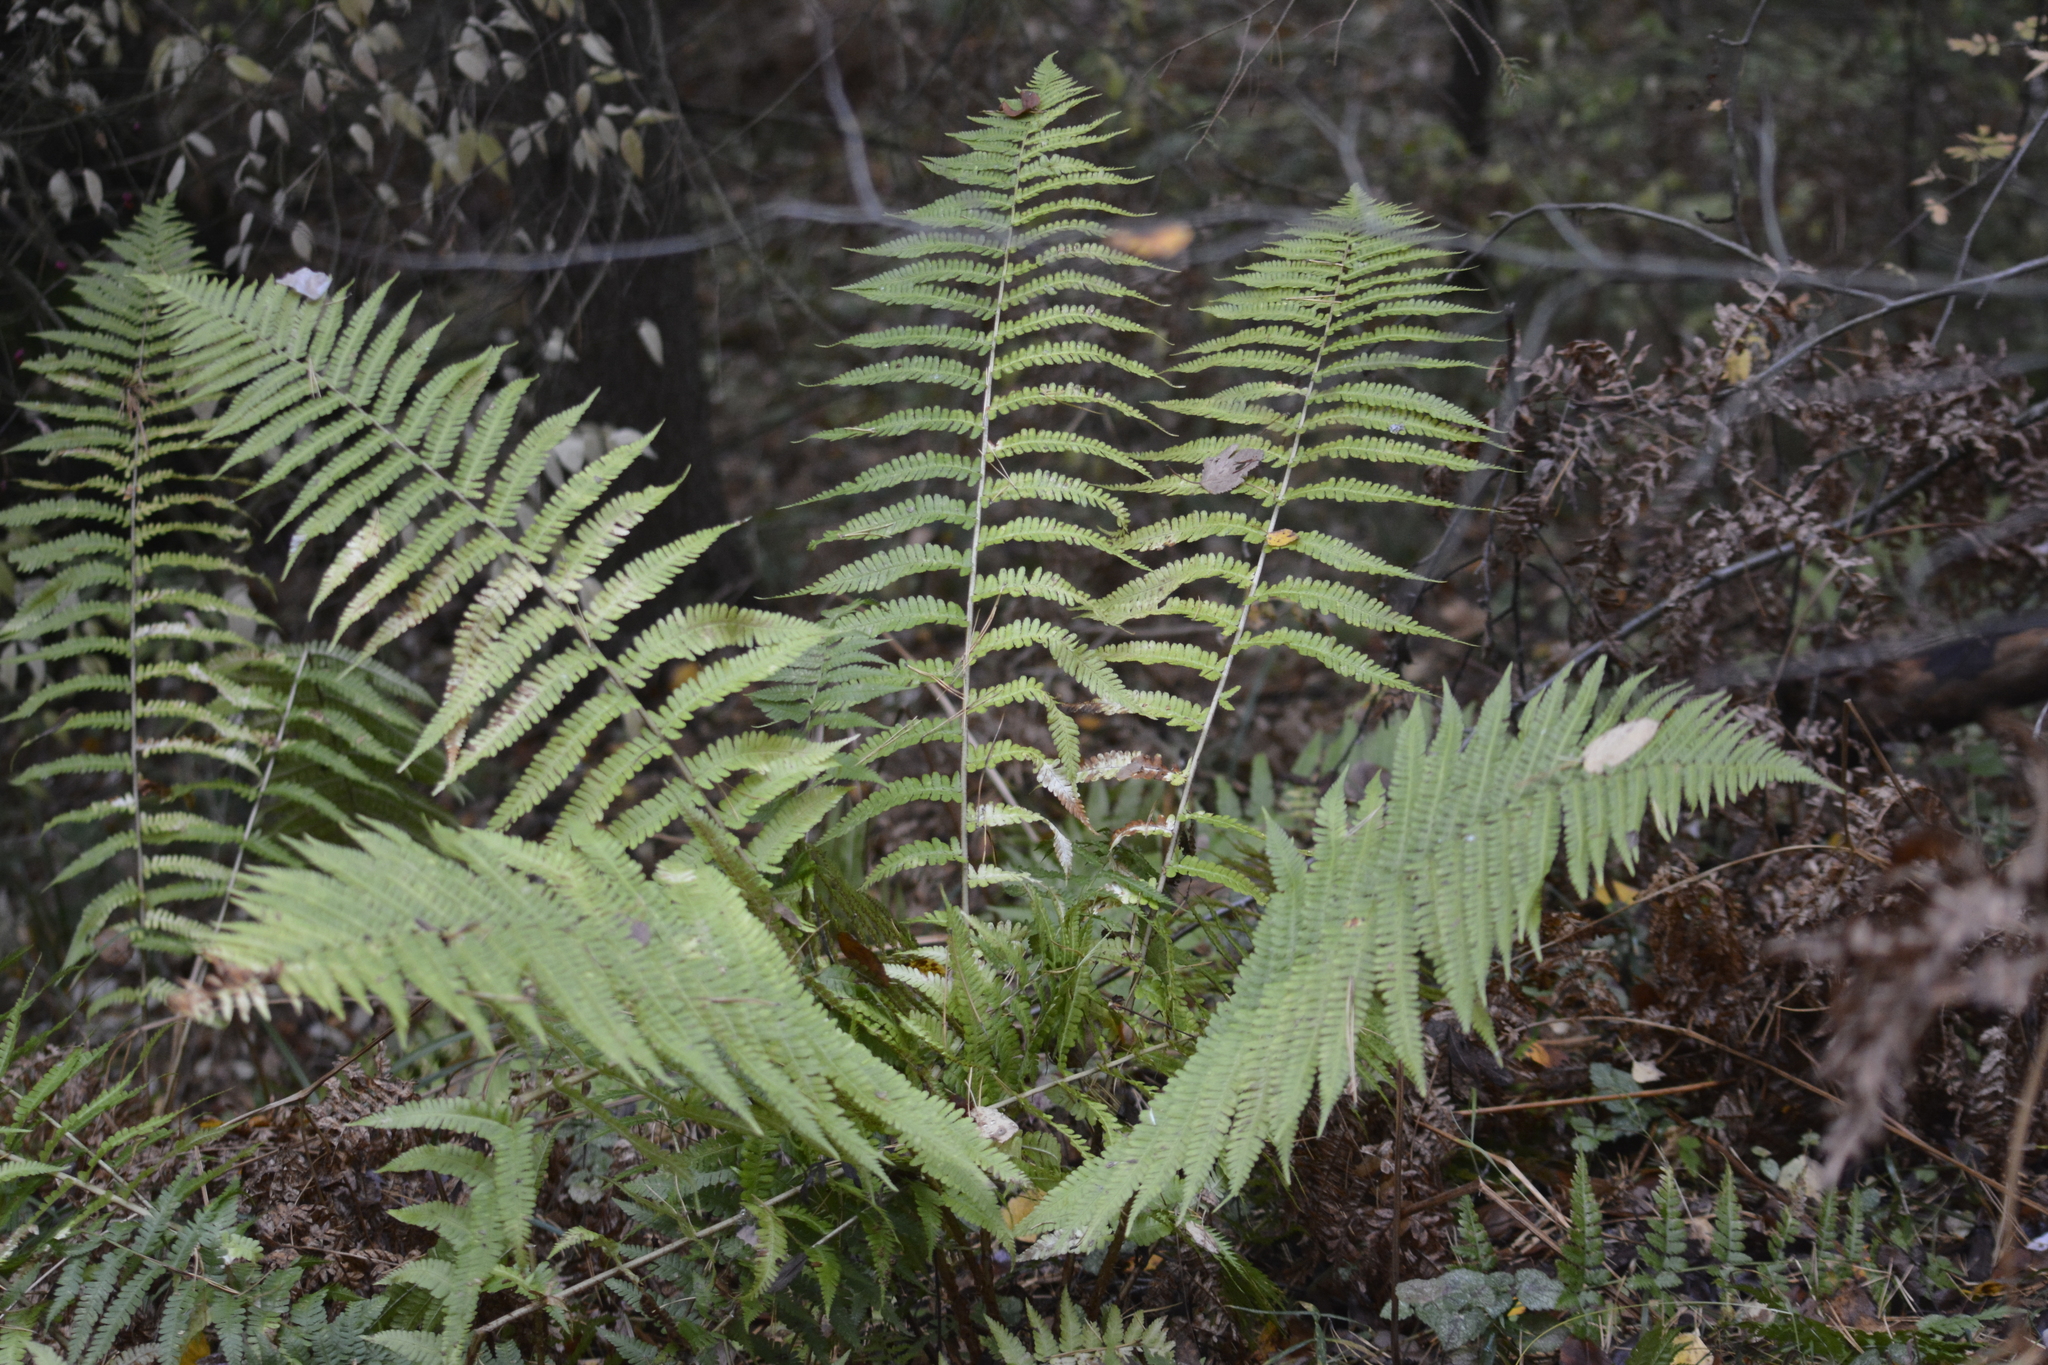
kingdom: Plantae
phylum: Tracheophyta
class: Polypodiopsida
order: Polypodiales
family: Dryopteridaceae
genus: Dryopteris
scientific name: Dryopteris filix-mas
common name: Male fern
